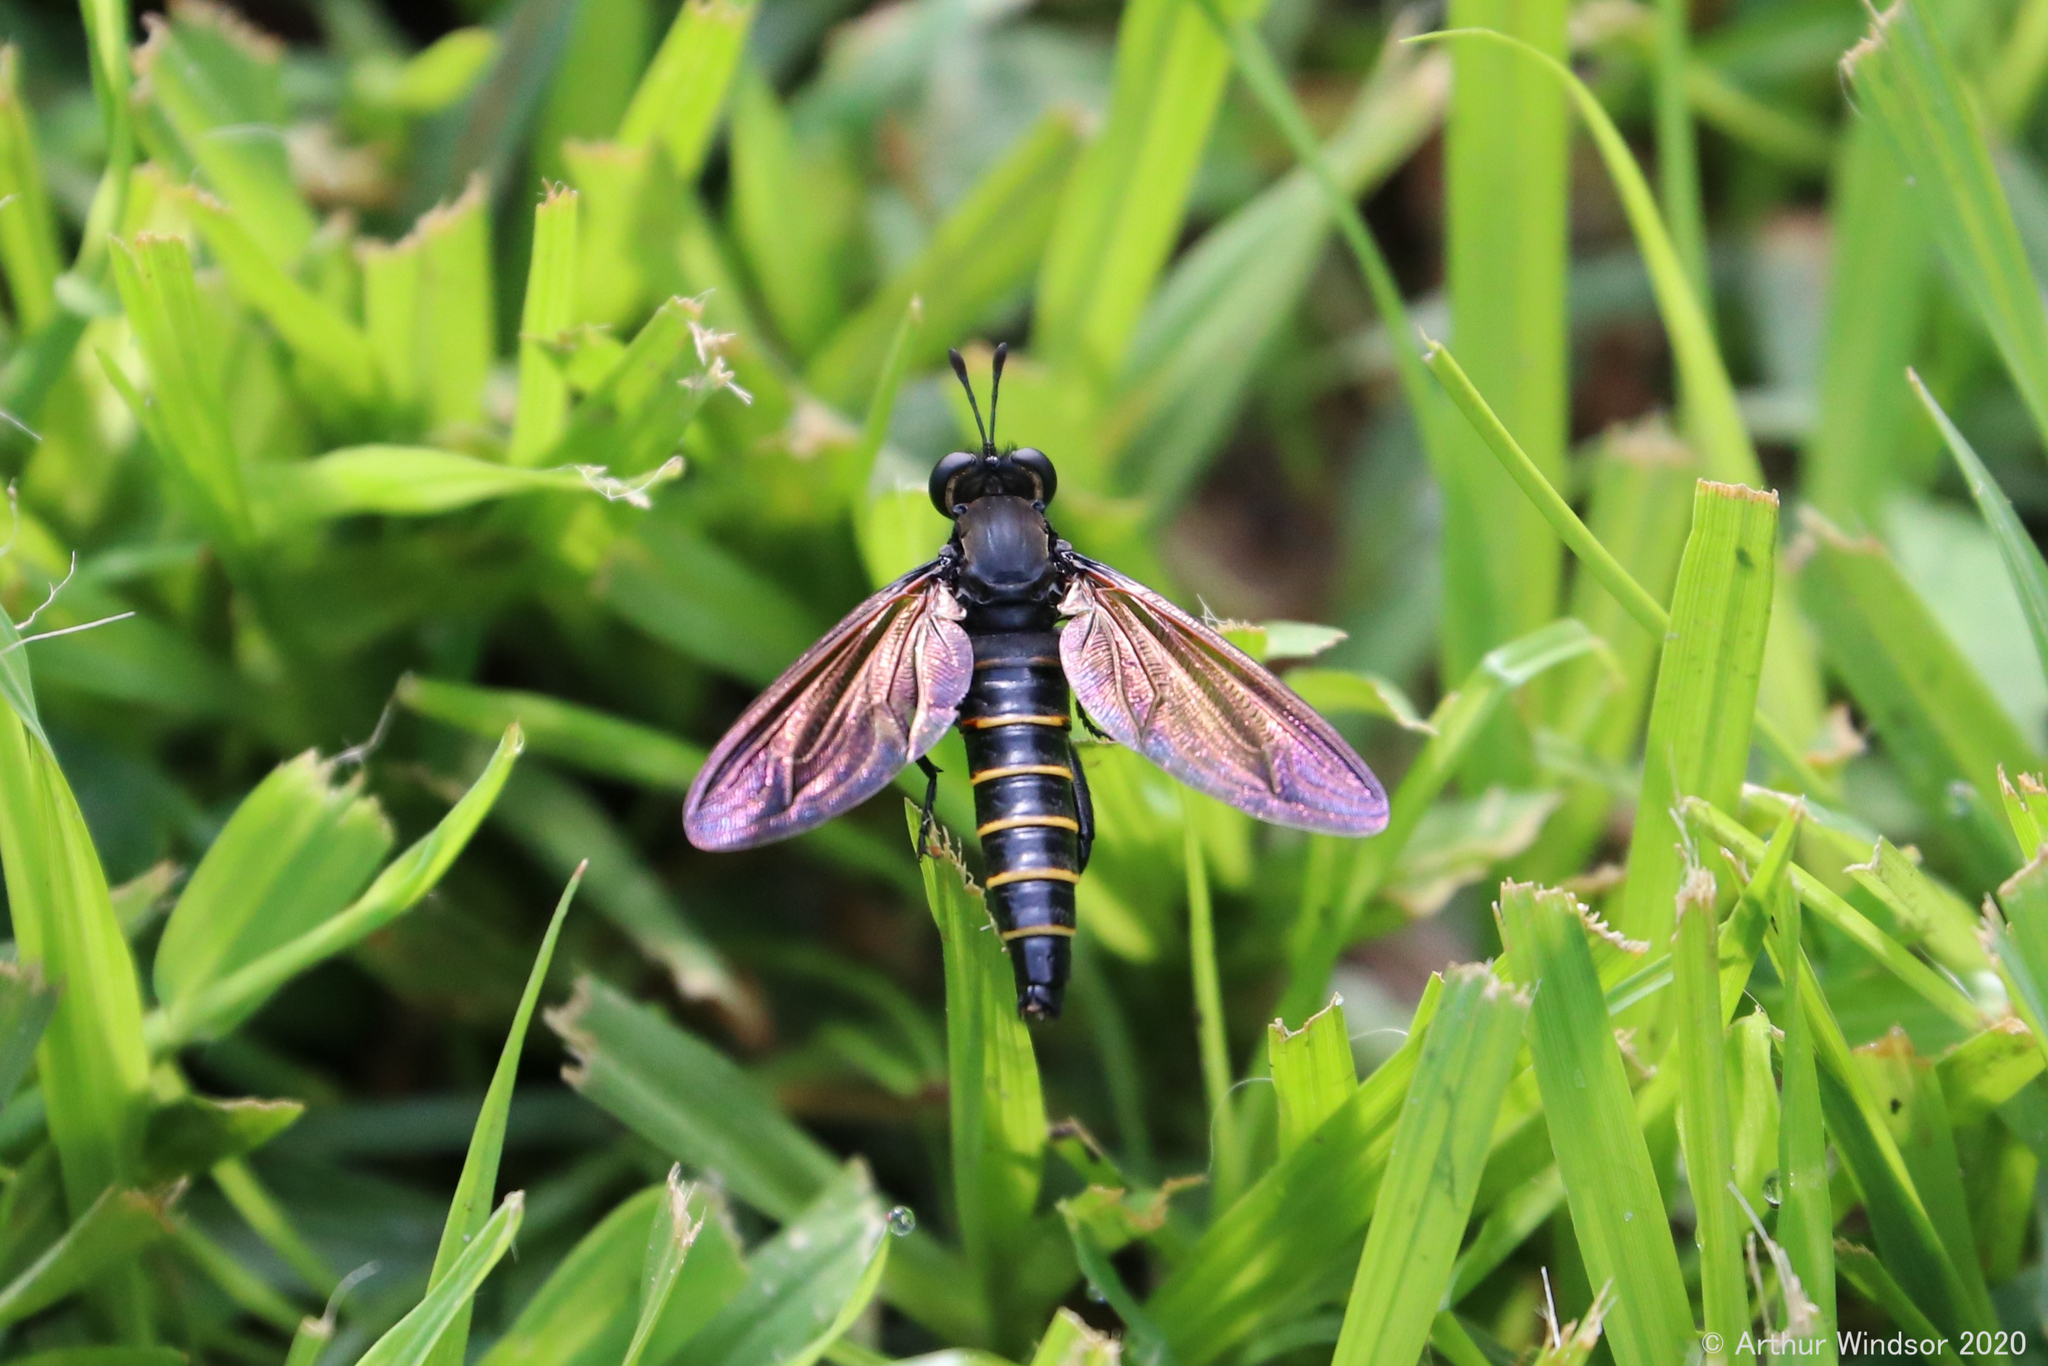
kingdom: Animalia
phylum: Arthropoda
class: Insecta
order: Diptera
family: Mydidae
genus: Mydas
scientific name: Mydas maculiventris
